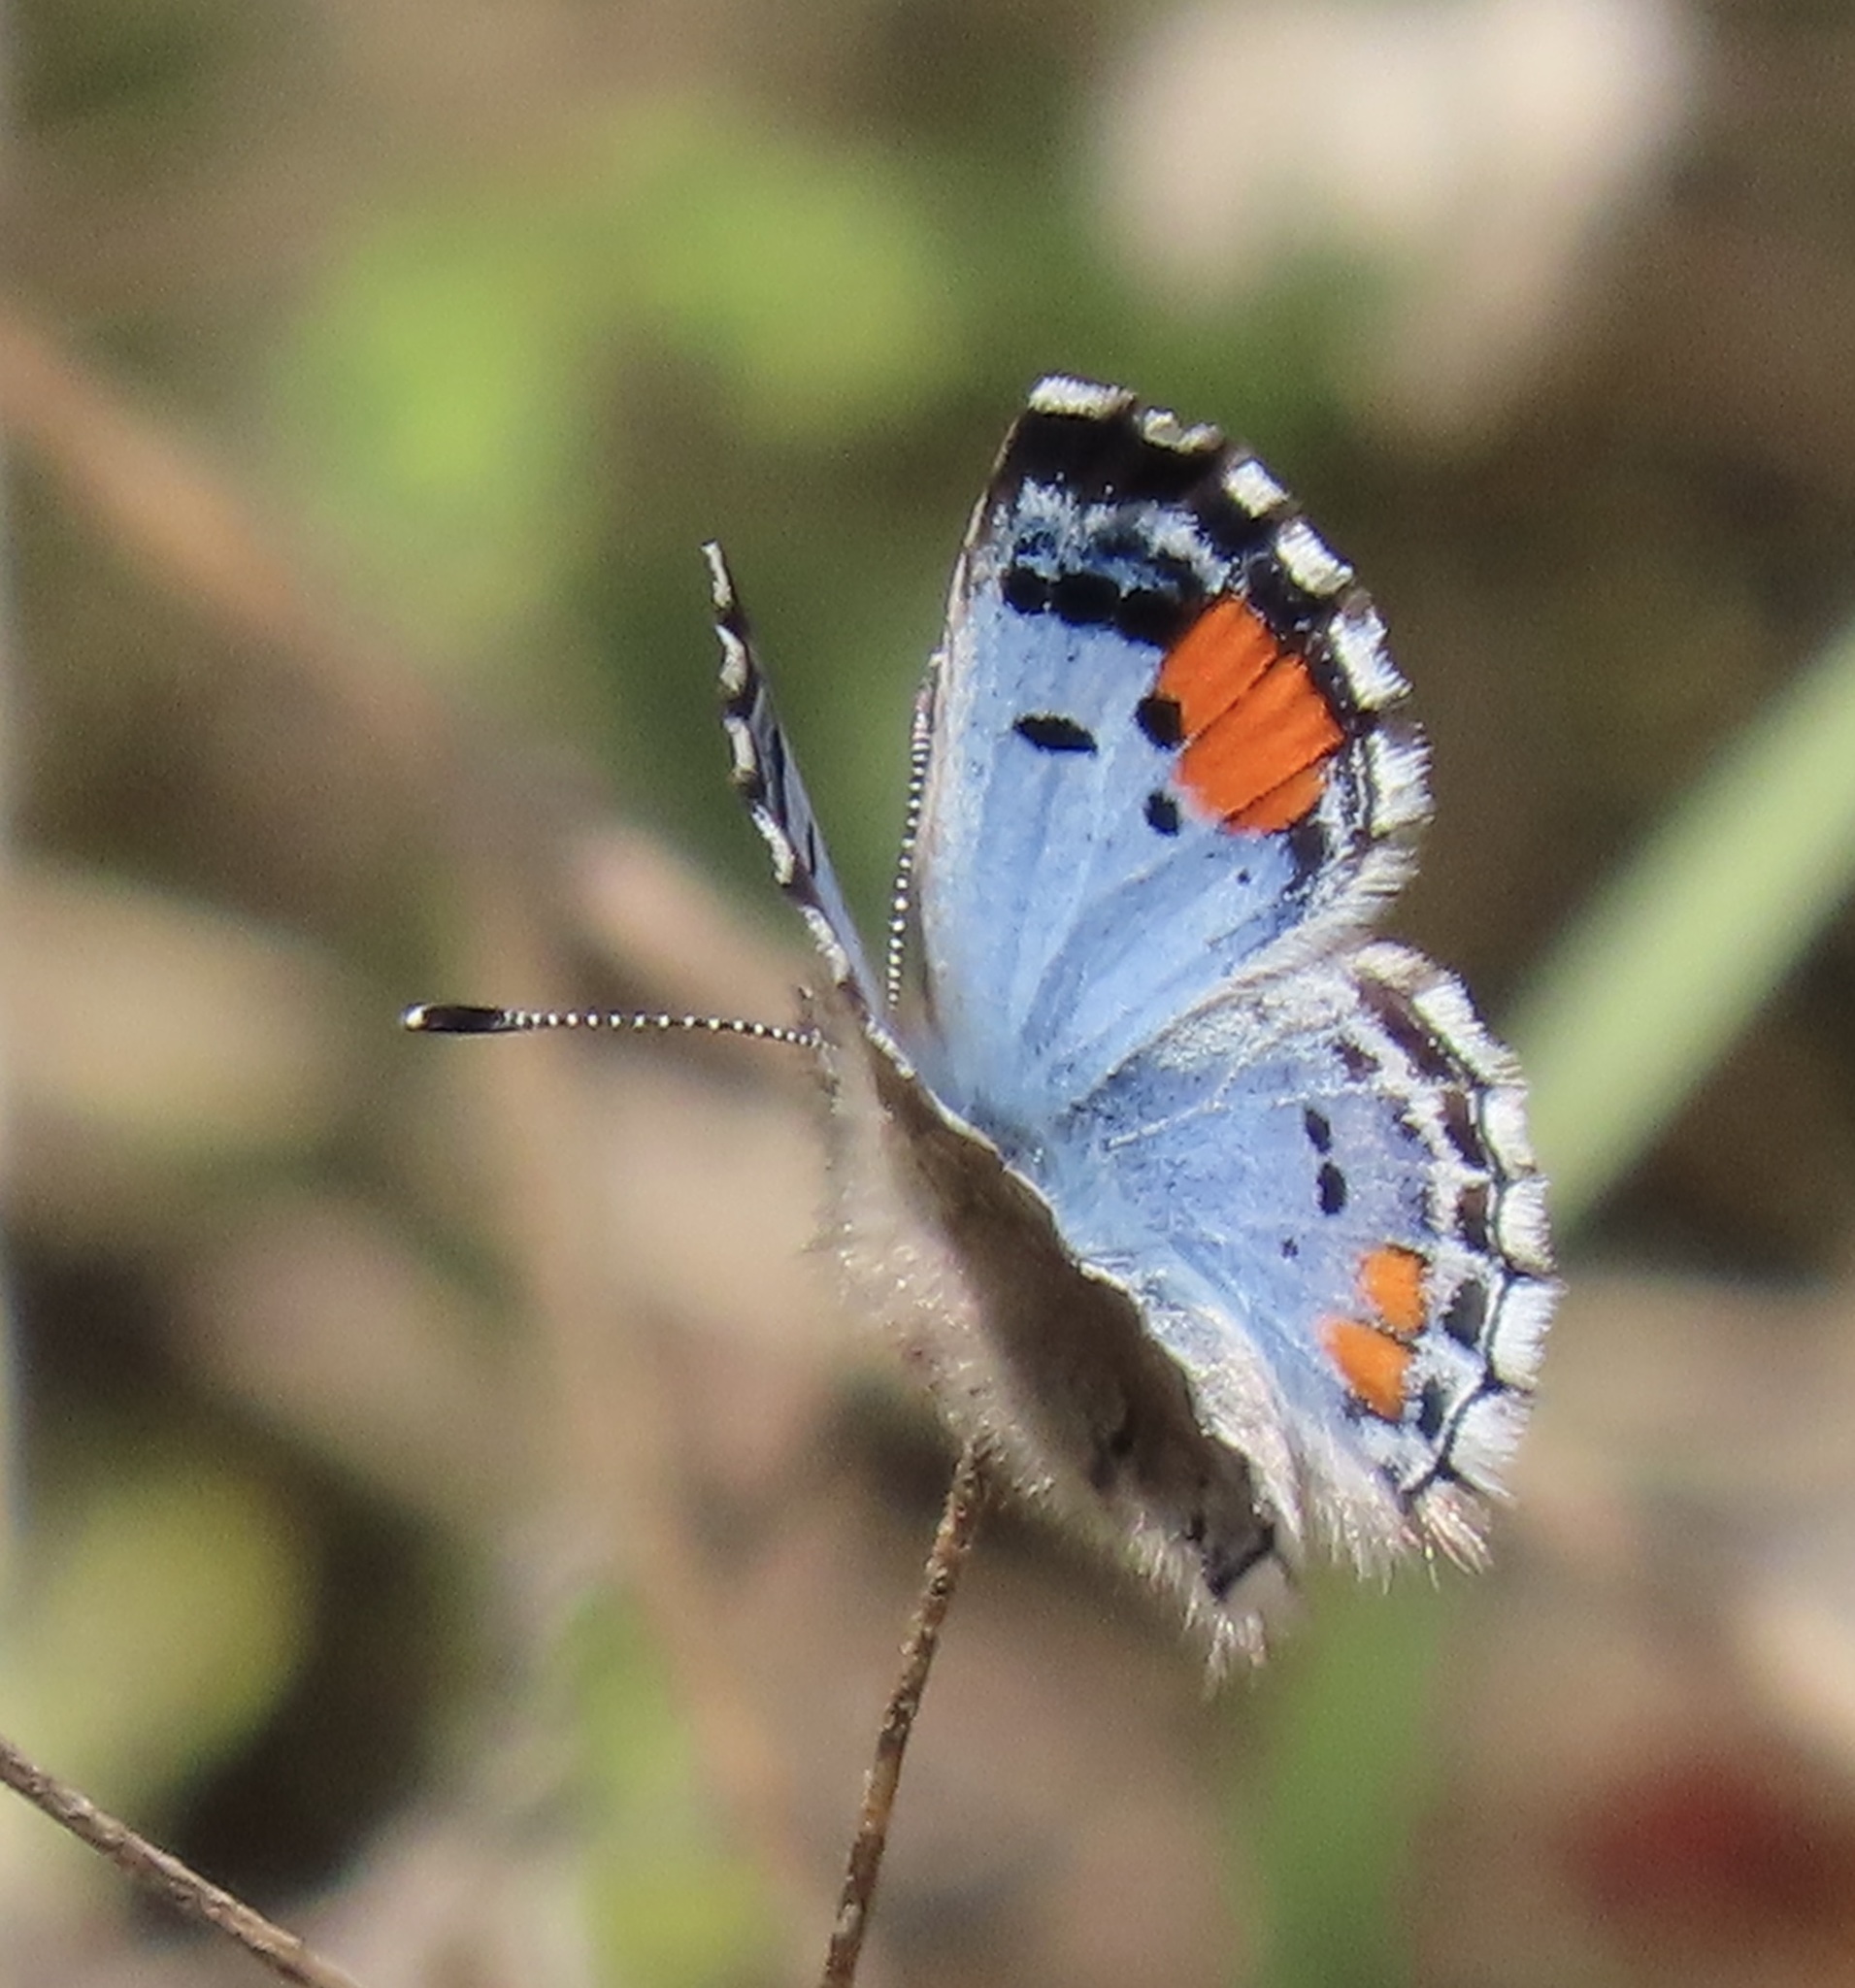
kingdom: Animalia
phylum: Arthropoda
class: Insecta
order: Lepidoptera
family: Lycaenidae
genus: Philotes
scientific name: Philotes sonorensis
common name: Sonoran blue
